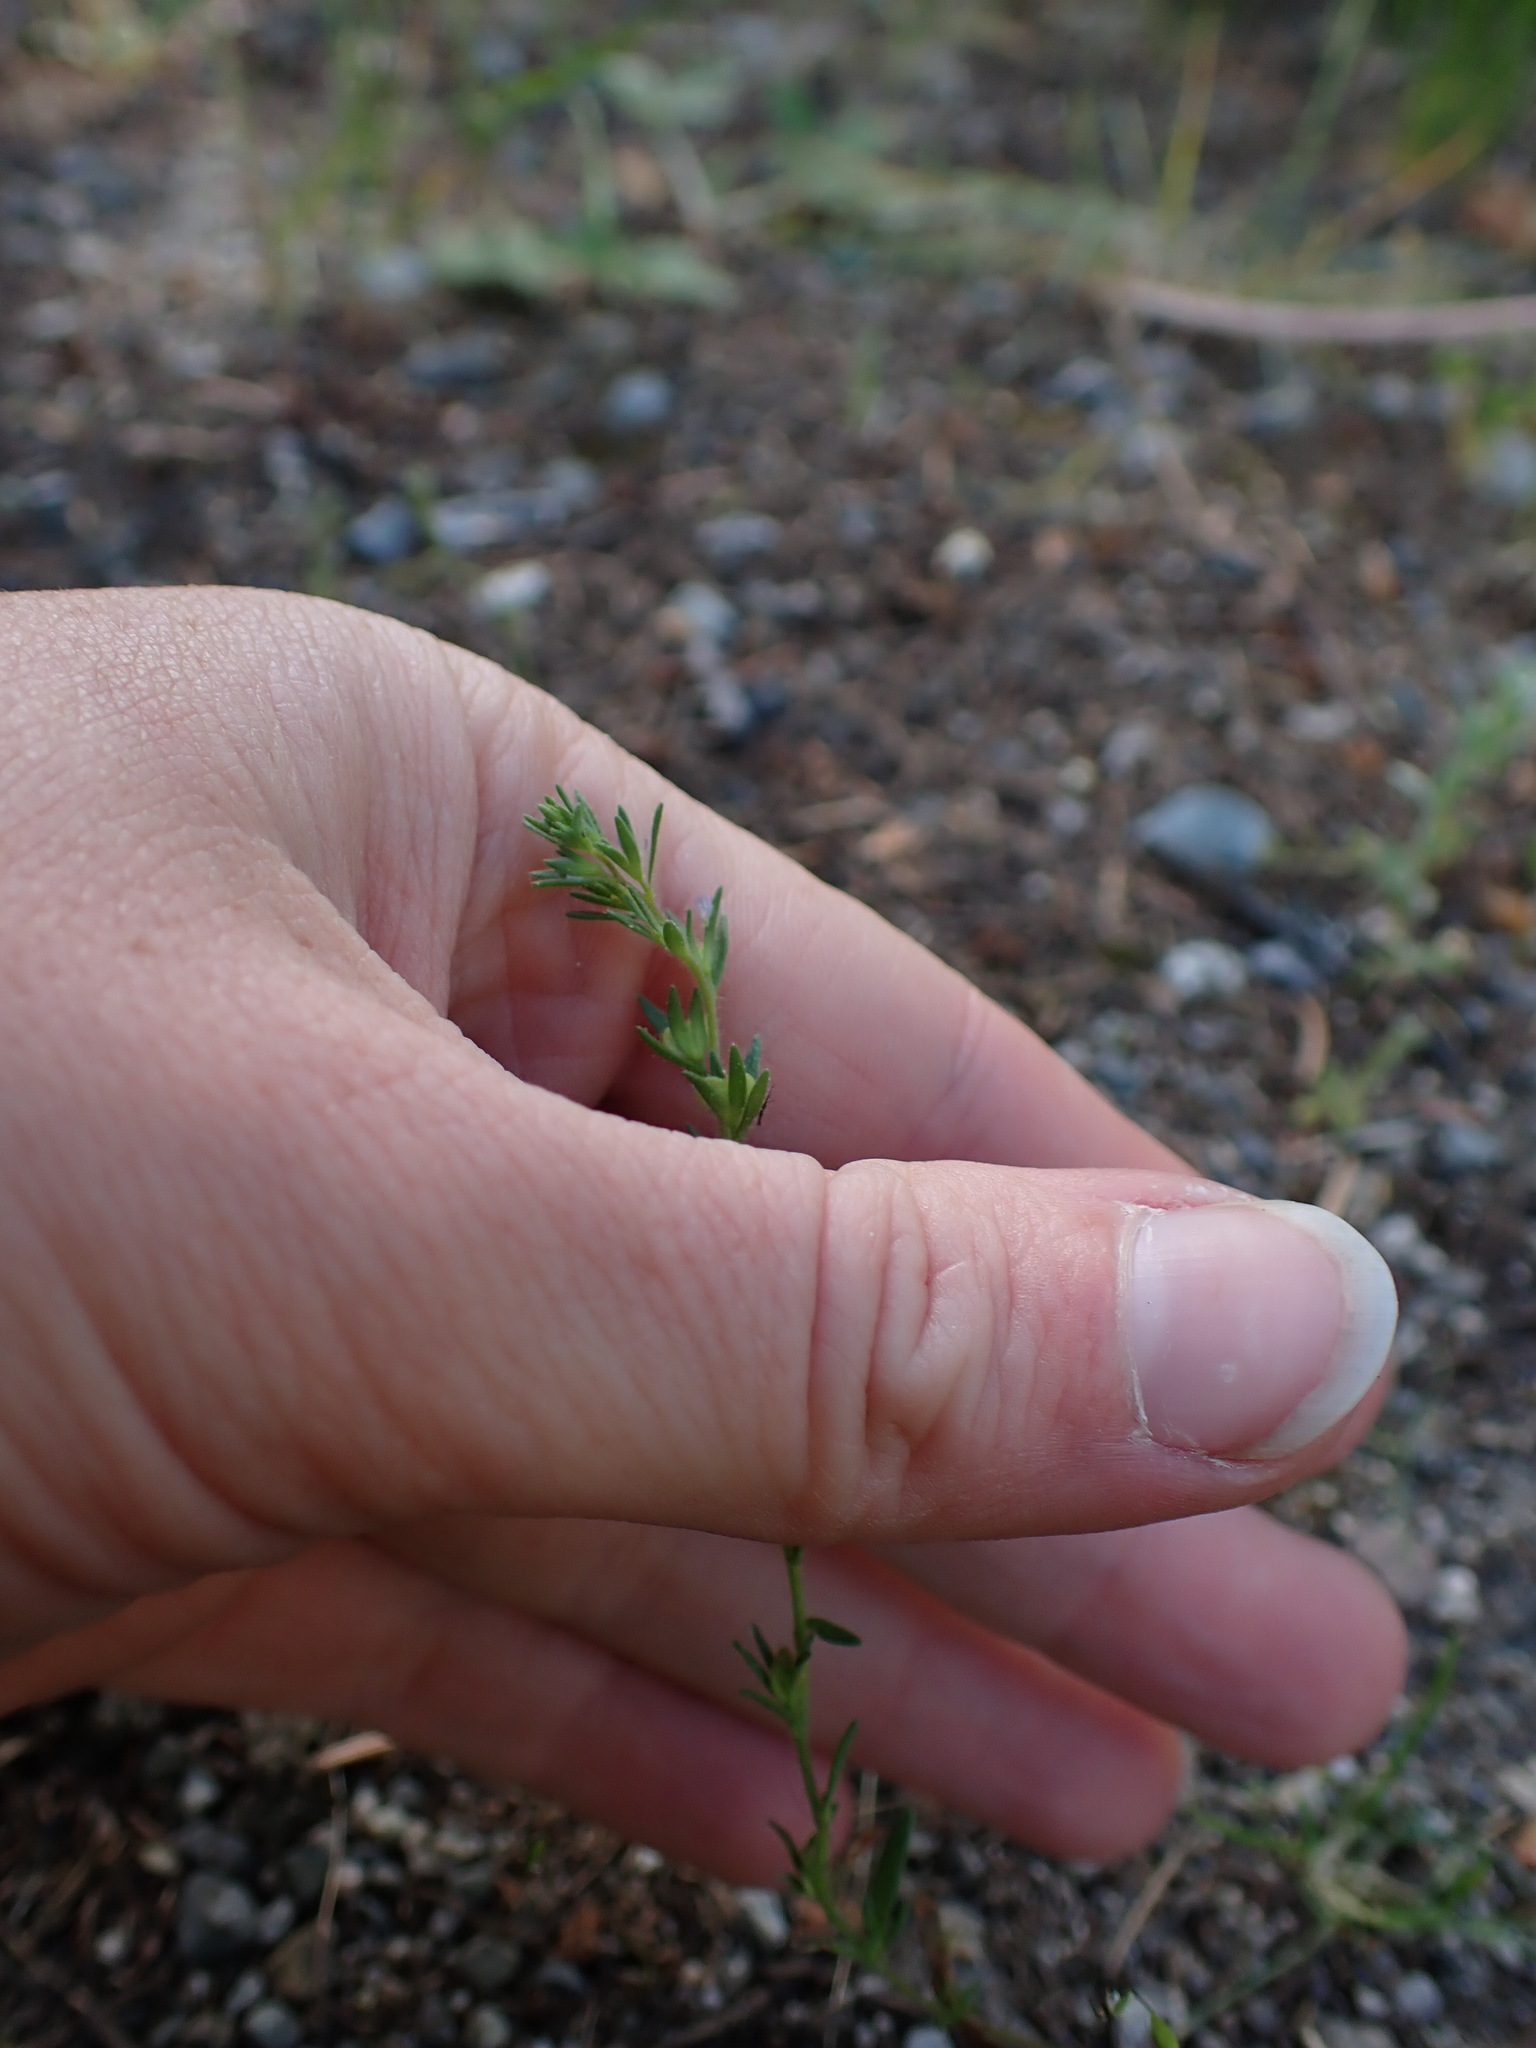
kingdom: Plantae
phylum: Tracheophyta
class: Magnoliopsida
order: Lamiales
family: Plantaginaceae
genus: Veronica
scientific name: Veronica verna
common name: Spring speedwell
